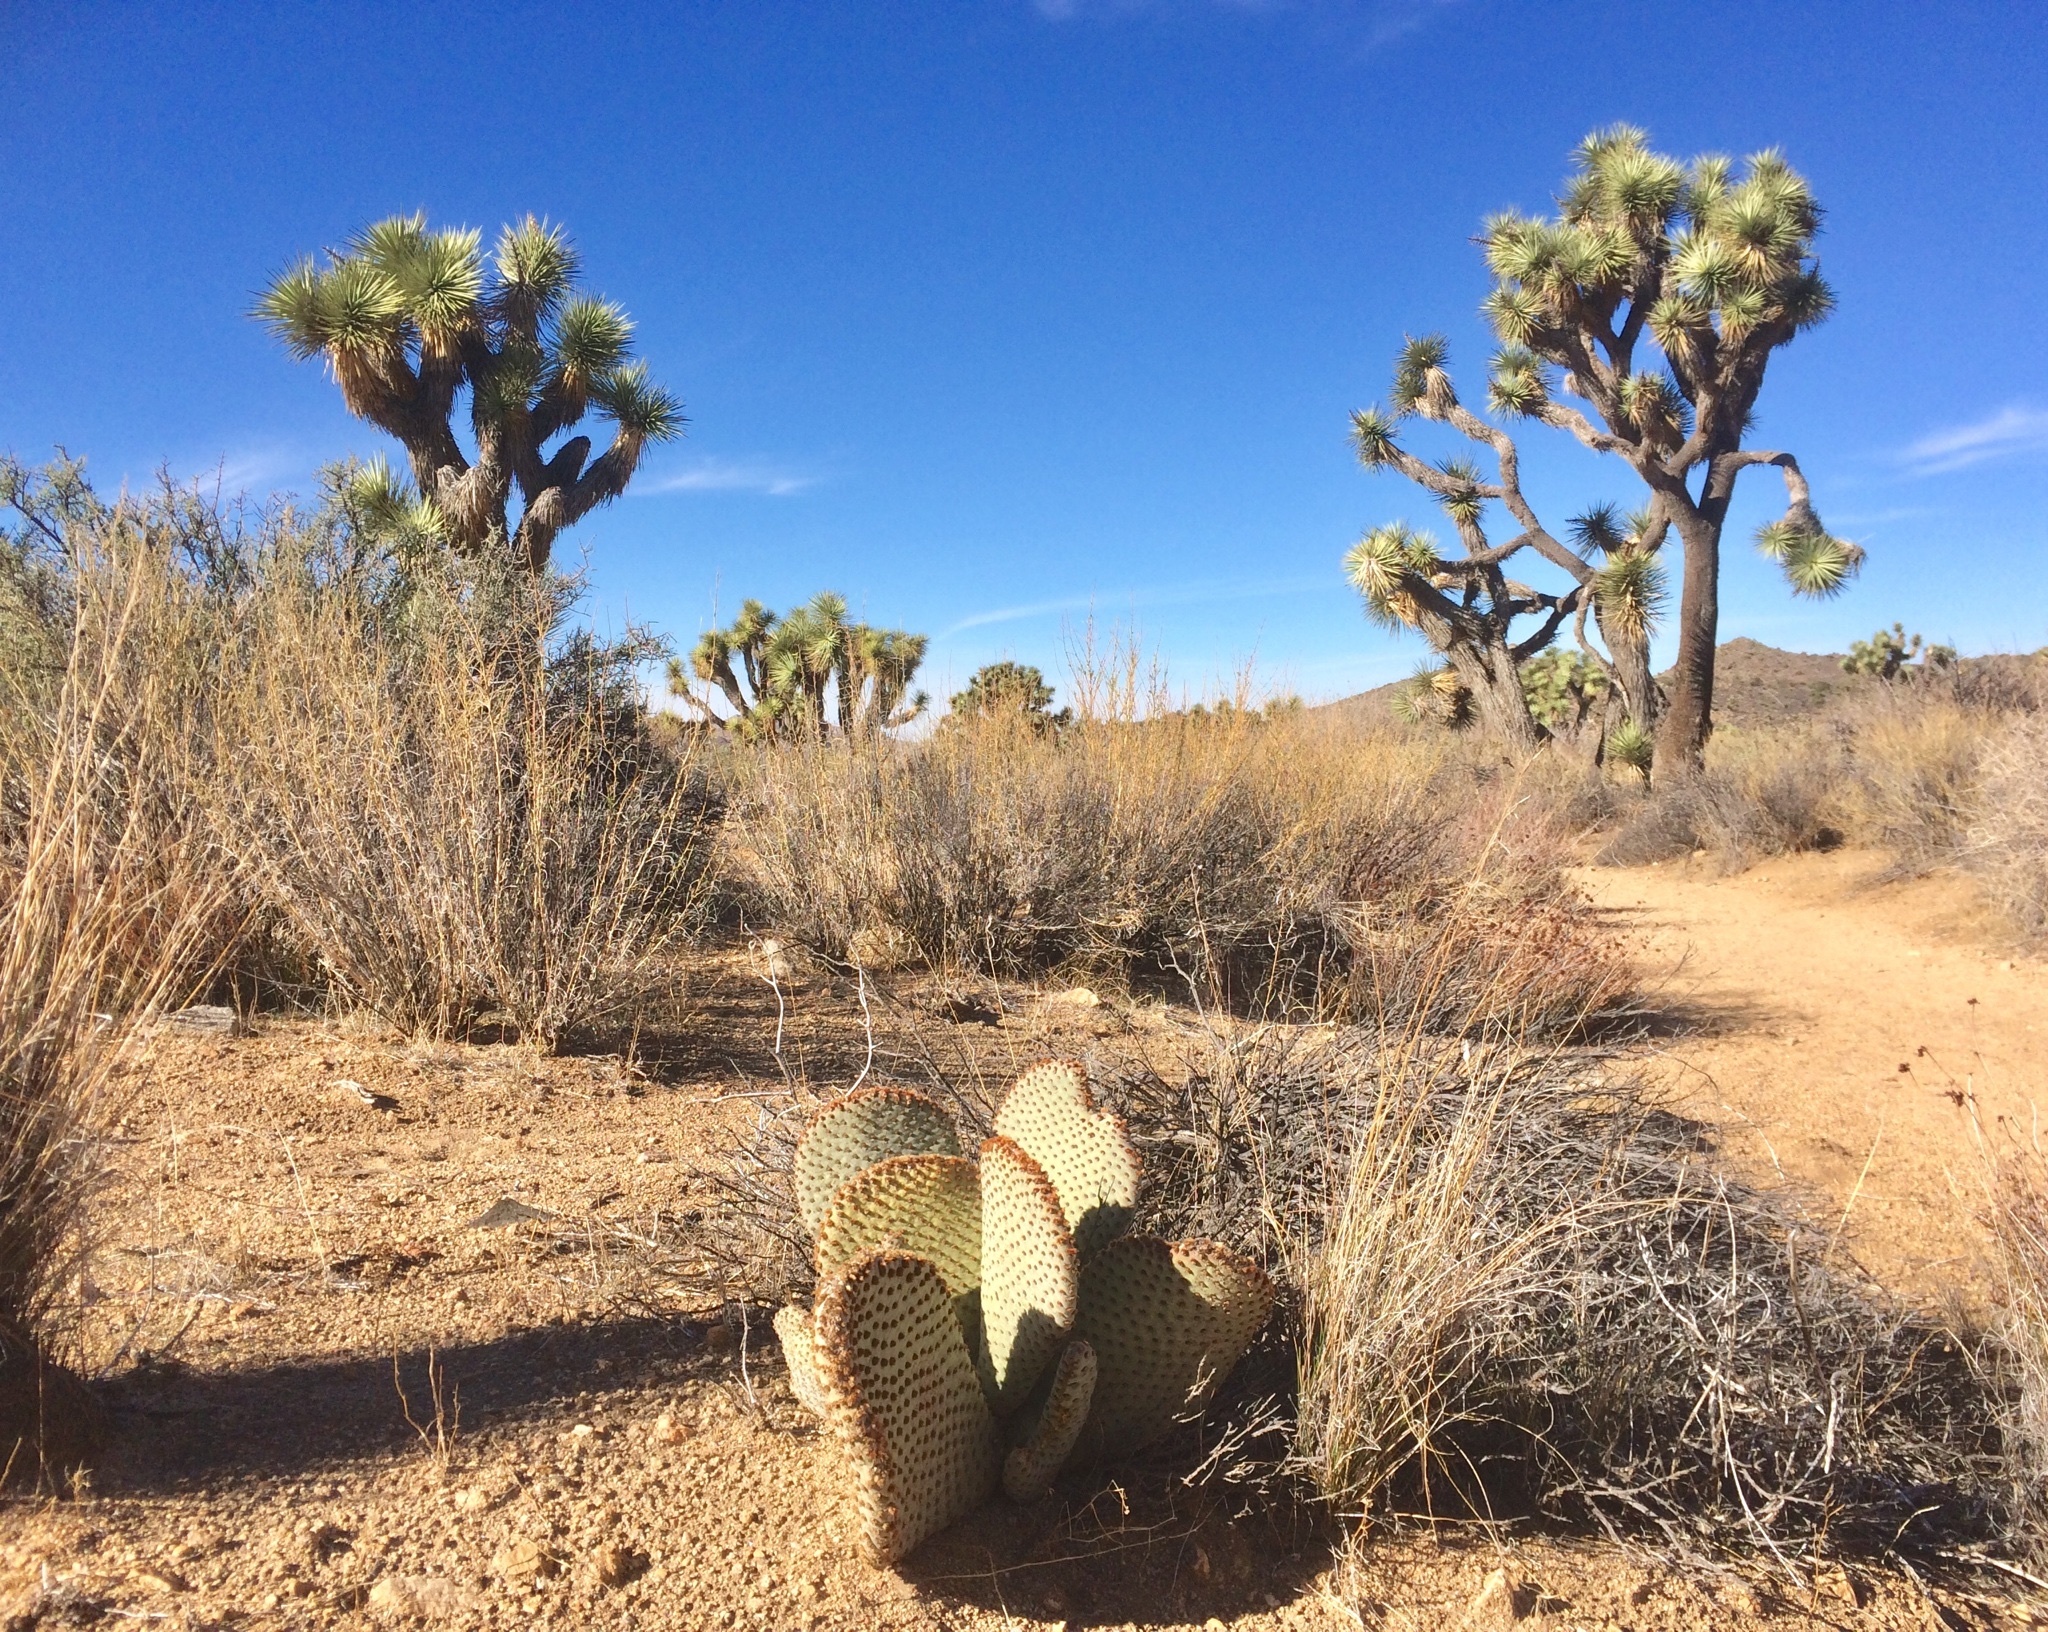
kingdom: Plantae
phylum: Tracheophyta
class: Magnoliopsida
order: Caryophyllales
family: Cactaceae
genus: Opuntia
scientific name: Opuntia basilaris
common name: Beavertail prickly-pear
